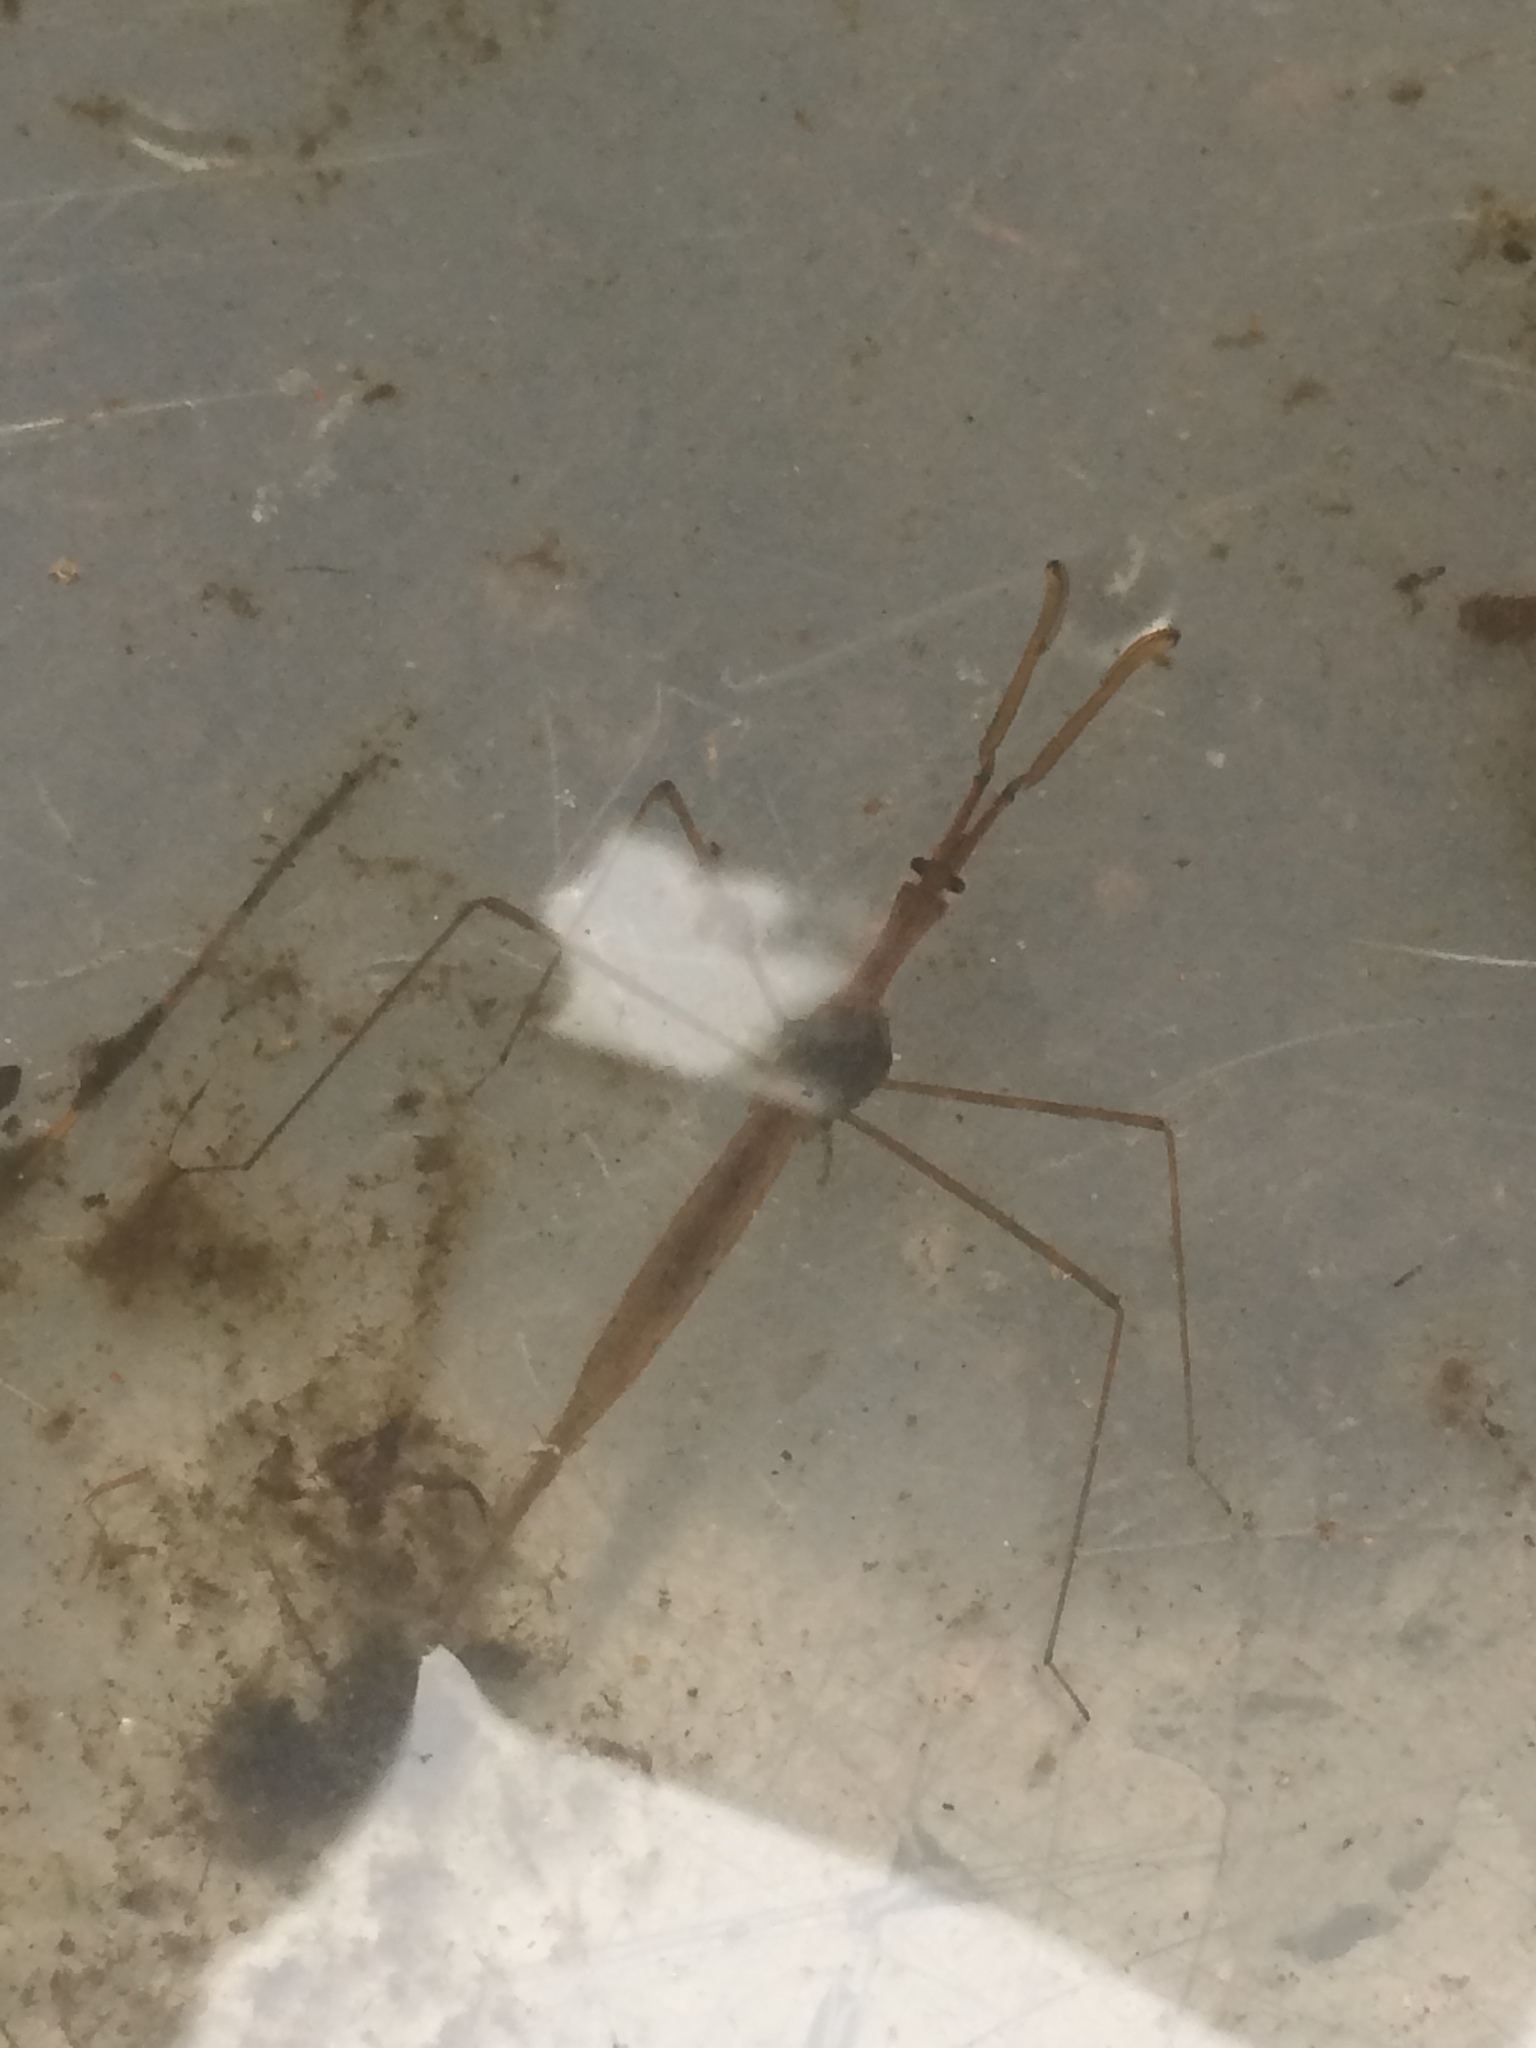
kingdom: Animalia
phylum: Arthropoda
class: Insecta
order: Hemiptera
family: Nepidae
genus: Ranatra
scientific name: Ranatra
